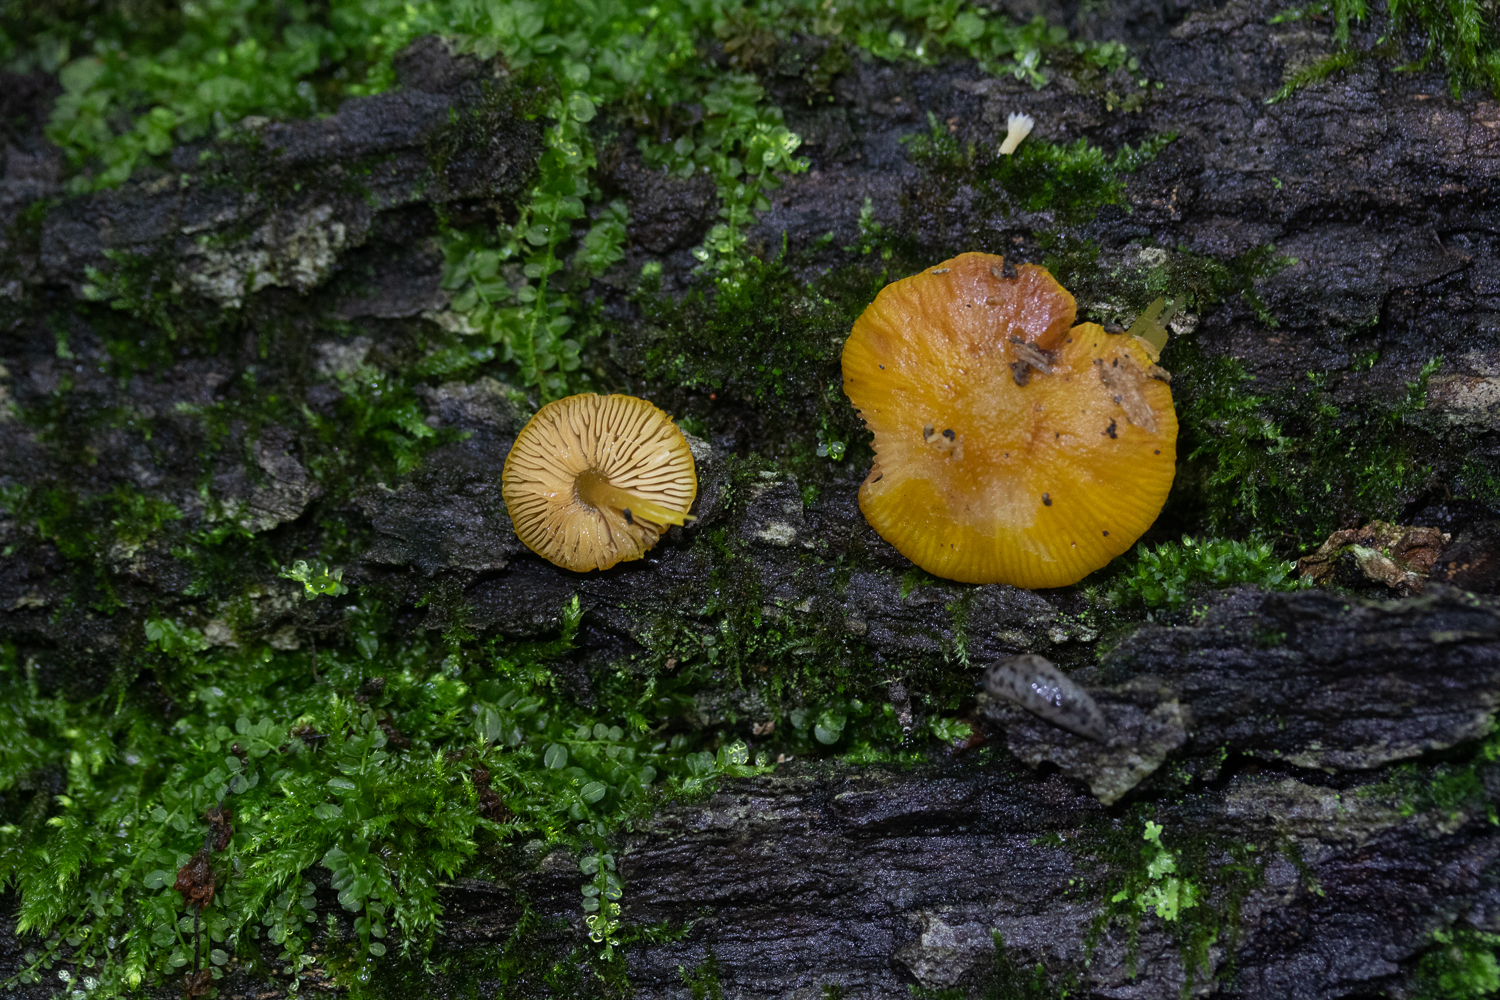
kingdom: Fungi
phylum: Basidiomycota
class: Agaricomycetes
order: Agaricales
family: Pluteaceae
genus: Pluteus
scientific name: Pluteus chrysophlebius
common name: Yellow deer mushroom
